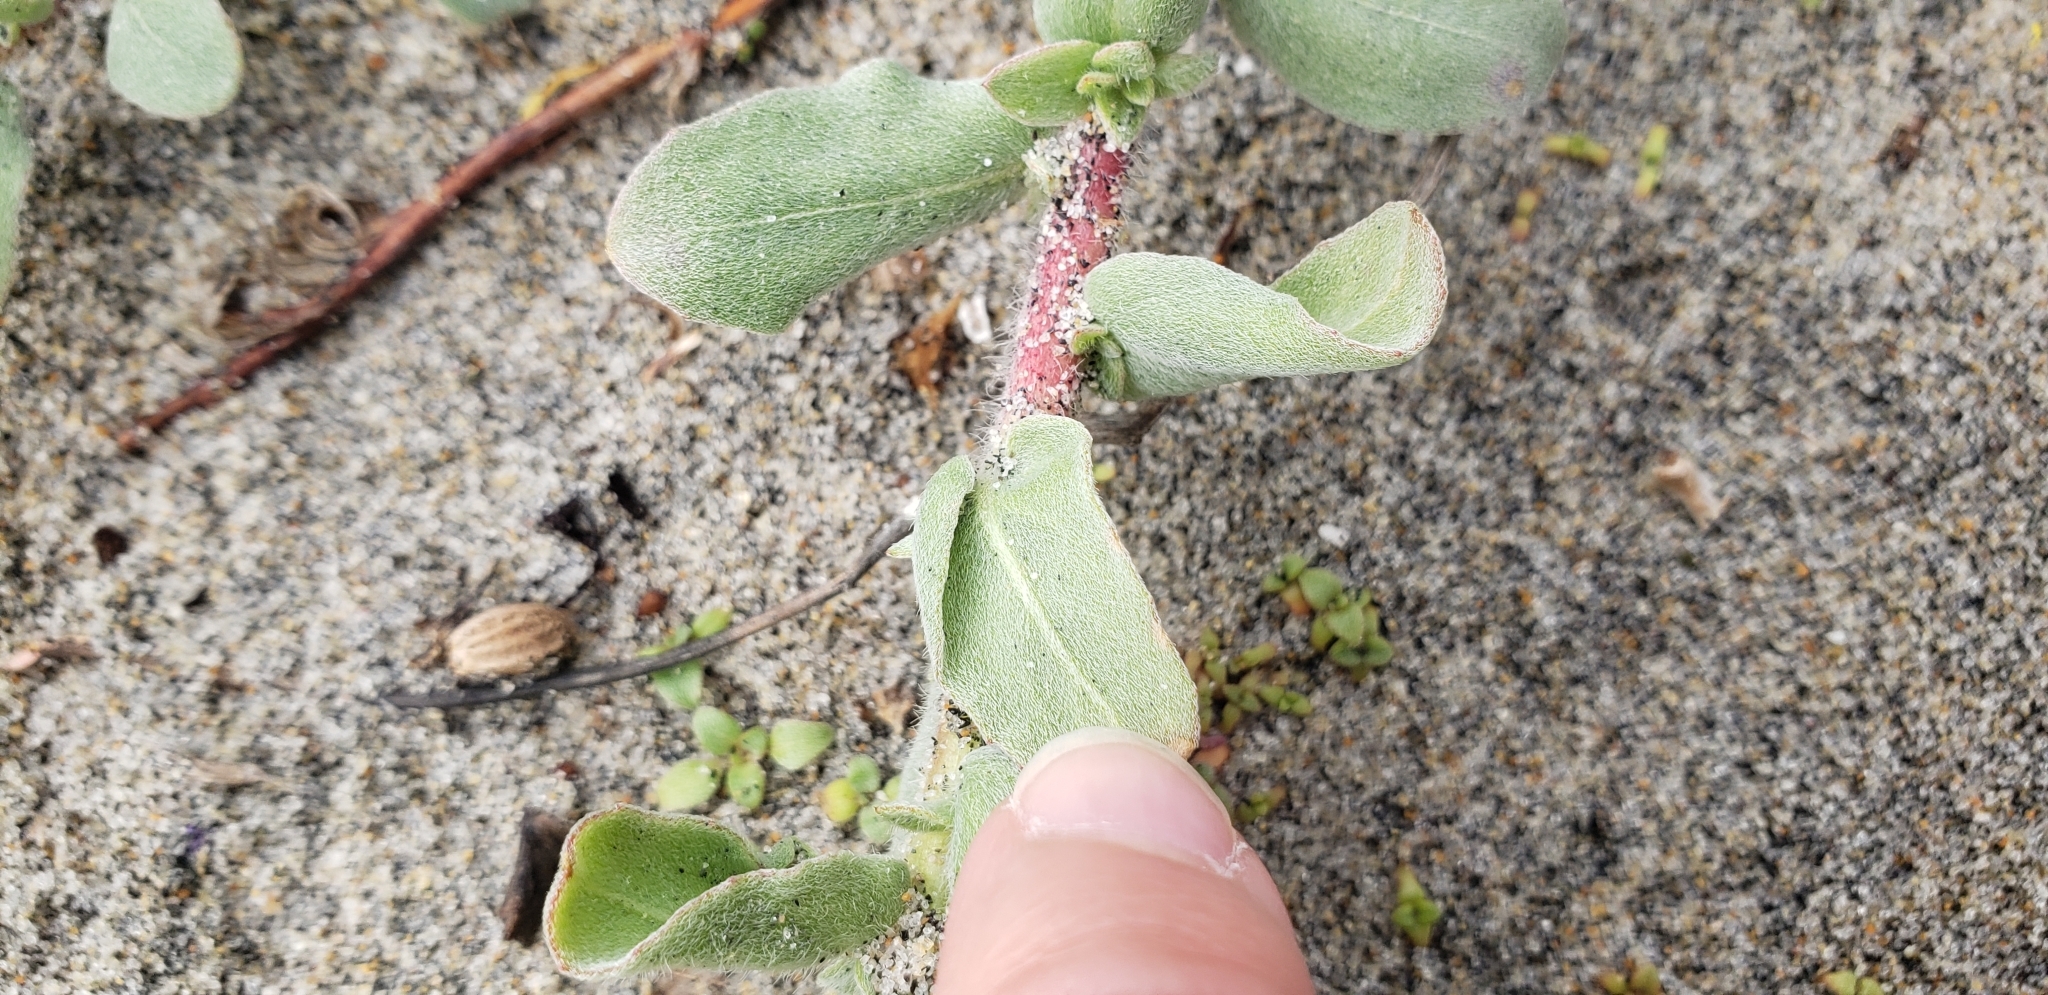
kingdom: Plantae
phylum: Tracheophyta
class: Magnoliopsida
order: Myrtales
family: Onagraceae
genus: Camissoniopsis
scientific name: Camissoniopsis cheiranthifolia
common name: Beach suncup
